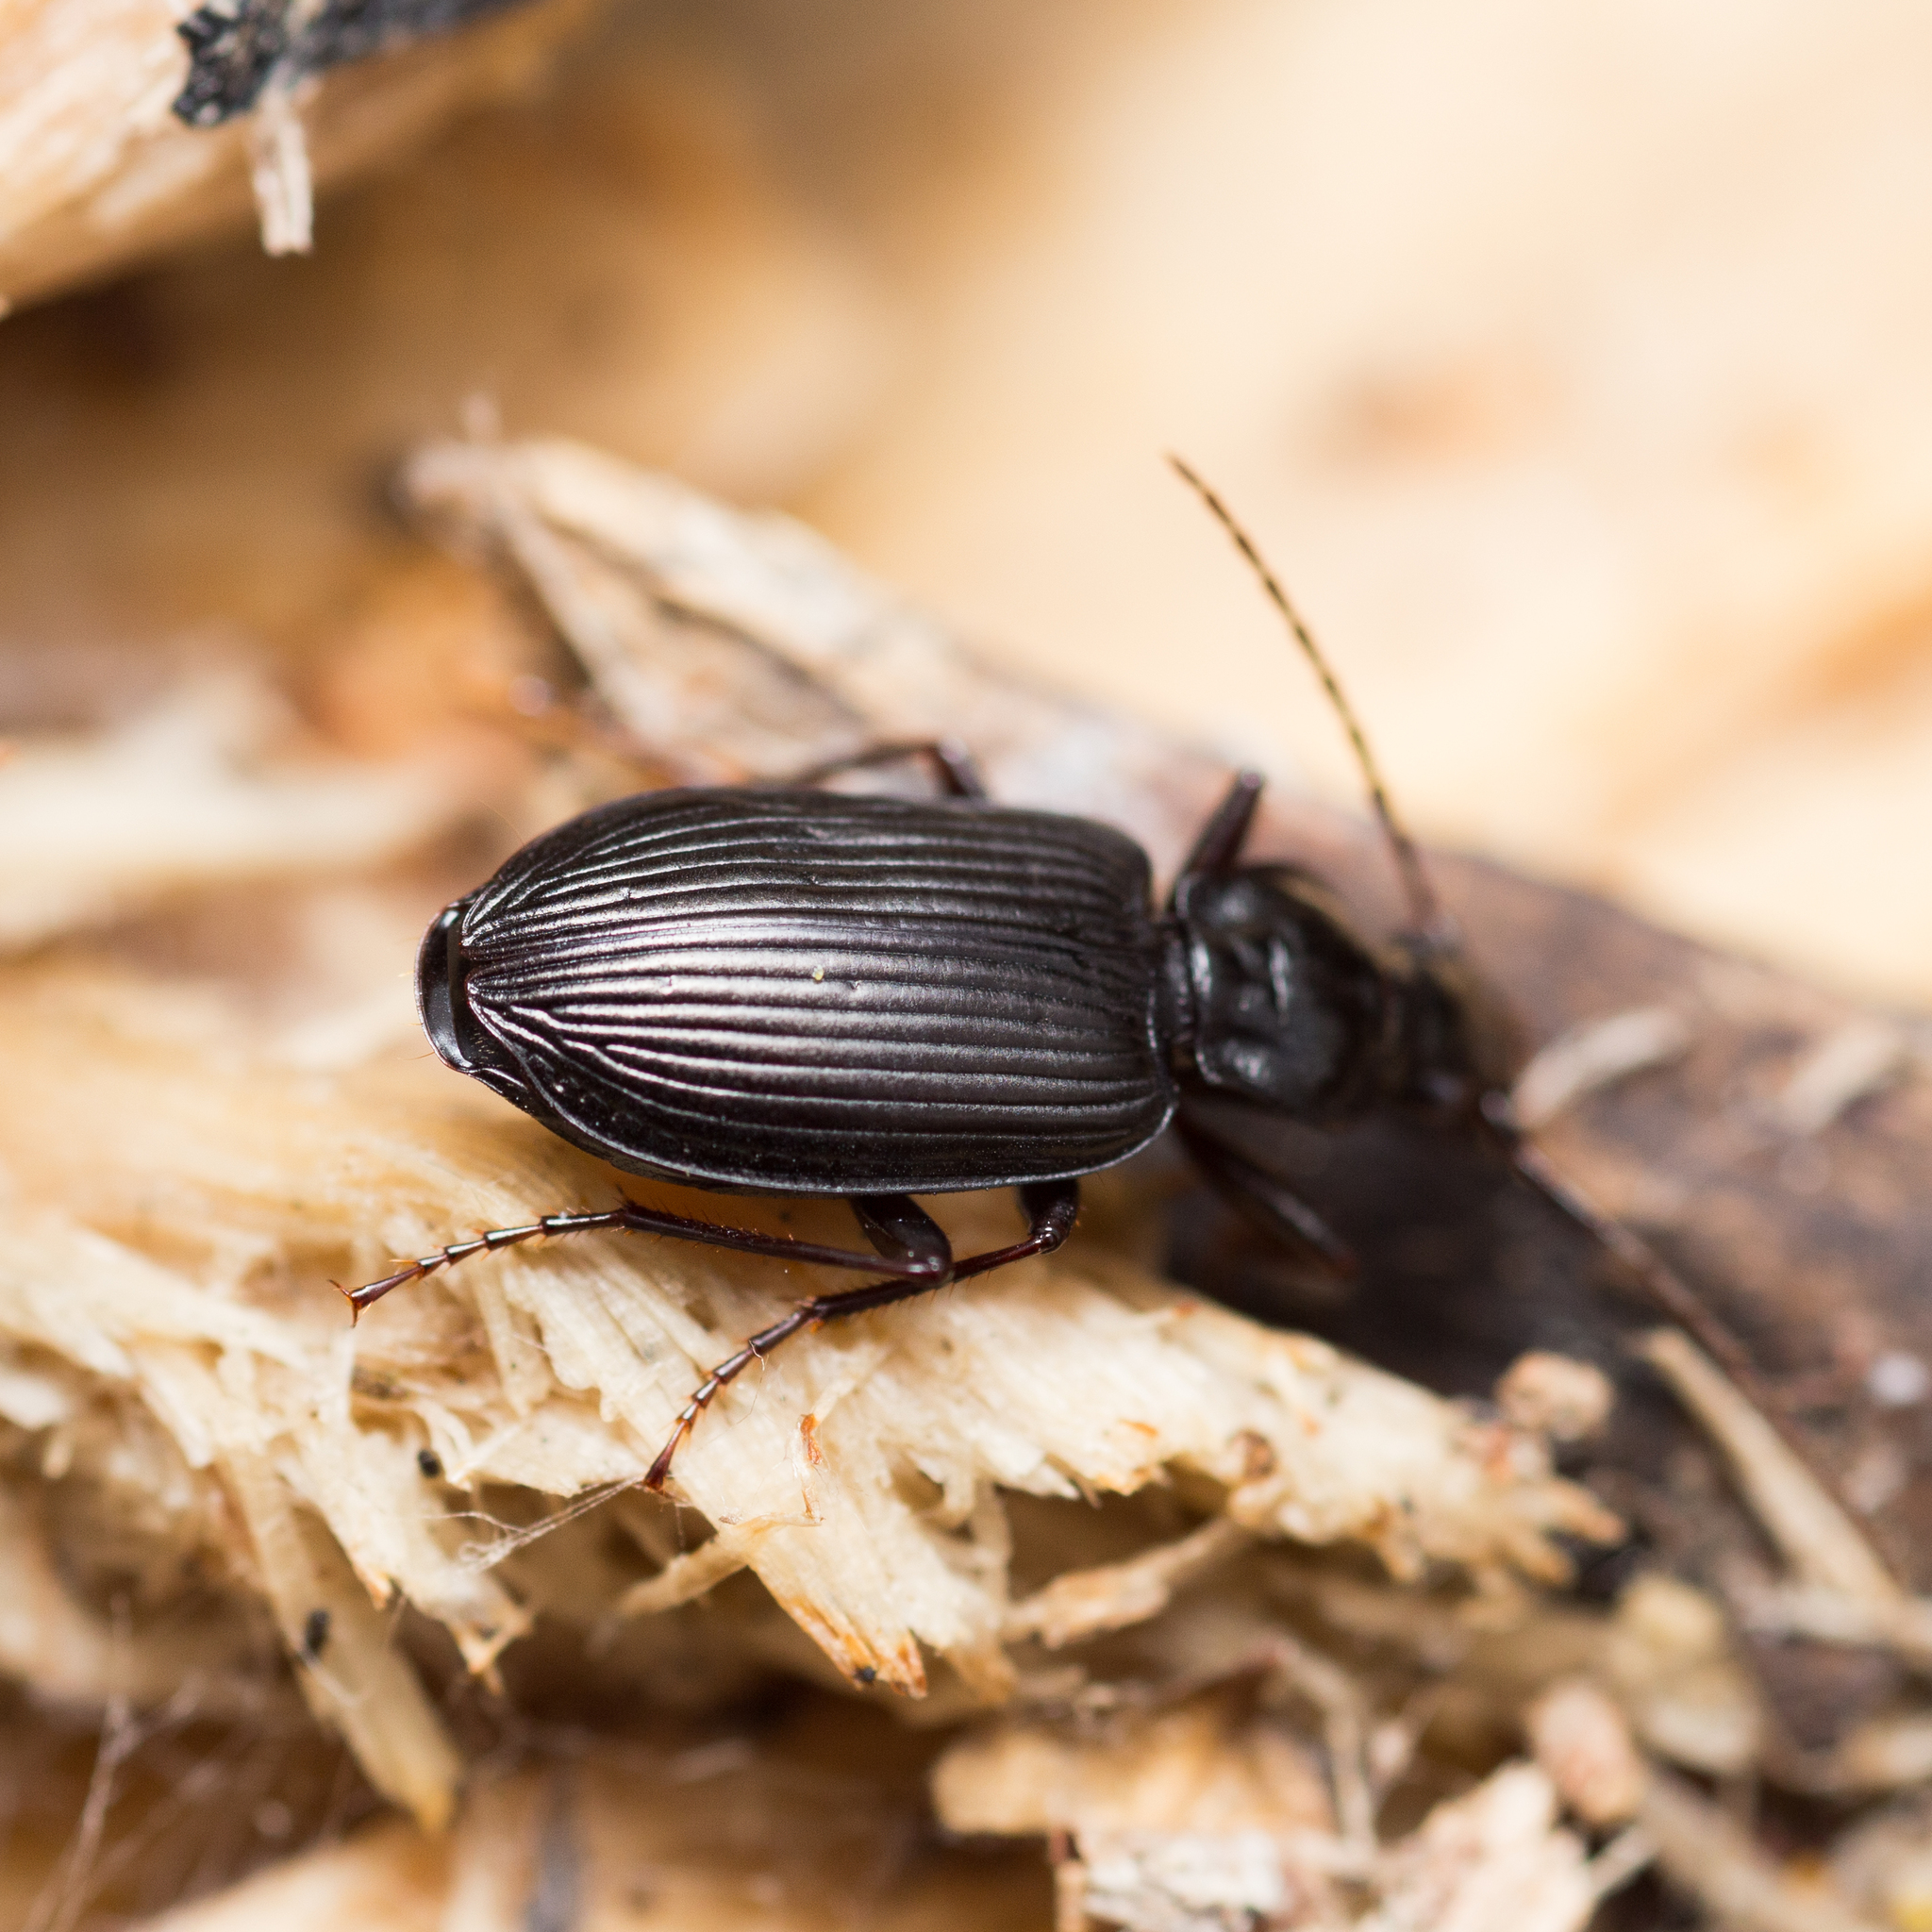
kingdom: Animalia
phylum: Arthropoda
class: Insecta
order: Coleoptera
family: Carabidae
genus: Platynus
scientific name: Platynus assimilis
